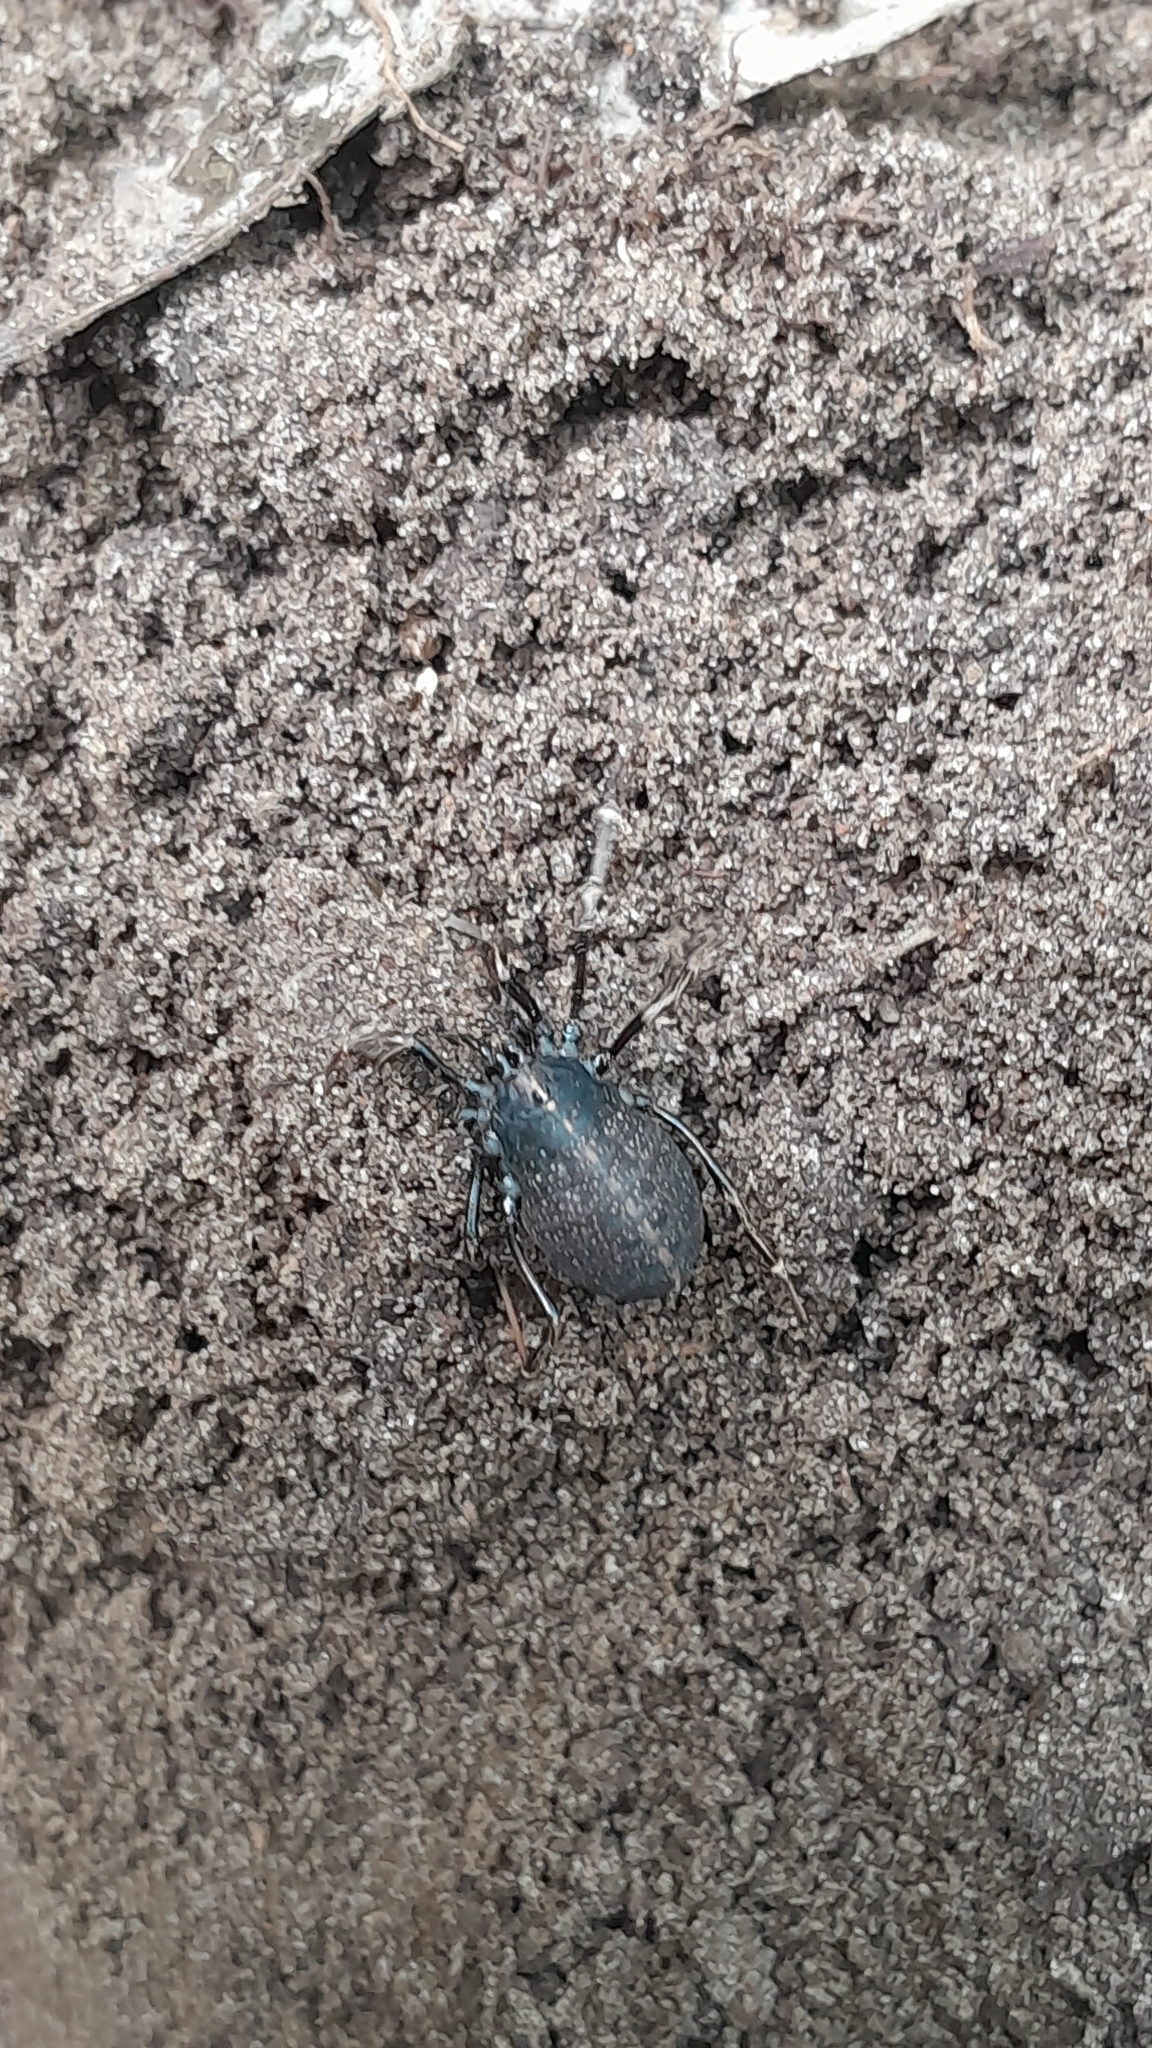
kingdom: Animalia
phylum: Arthropoda
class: Arachnida
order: Opiliones
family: Phalangiidae
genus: Egaenus
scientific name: Egaenus convexus
